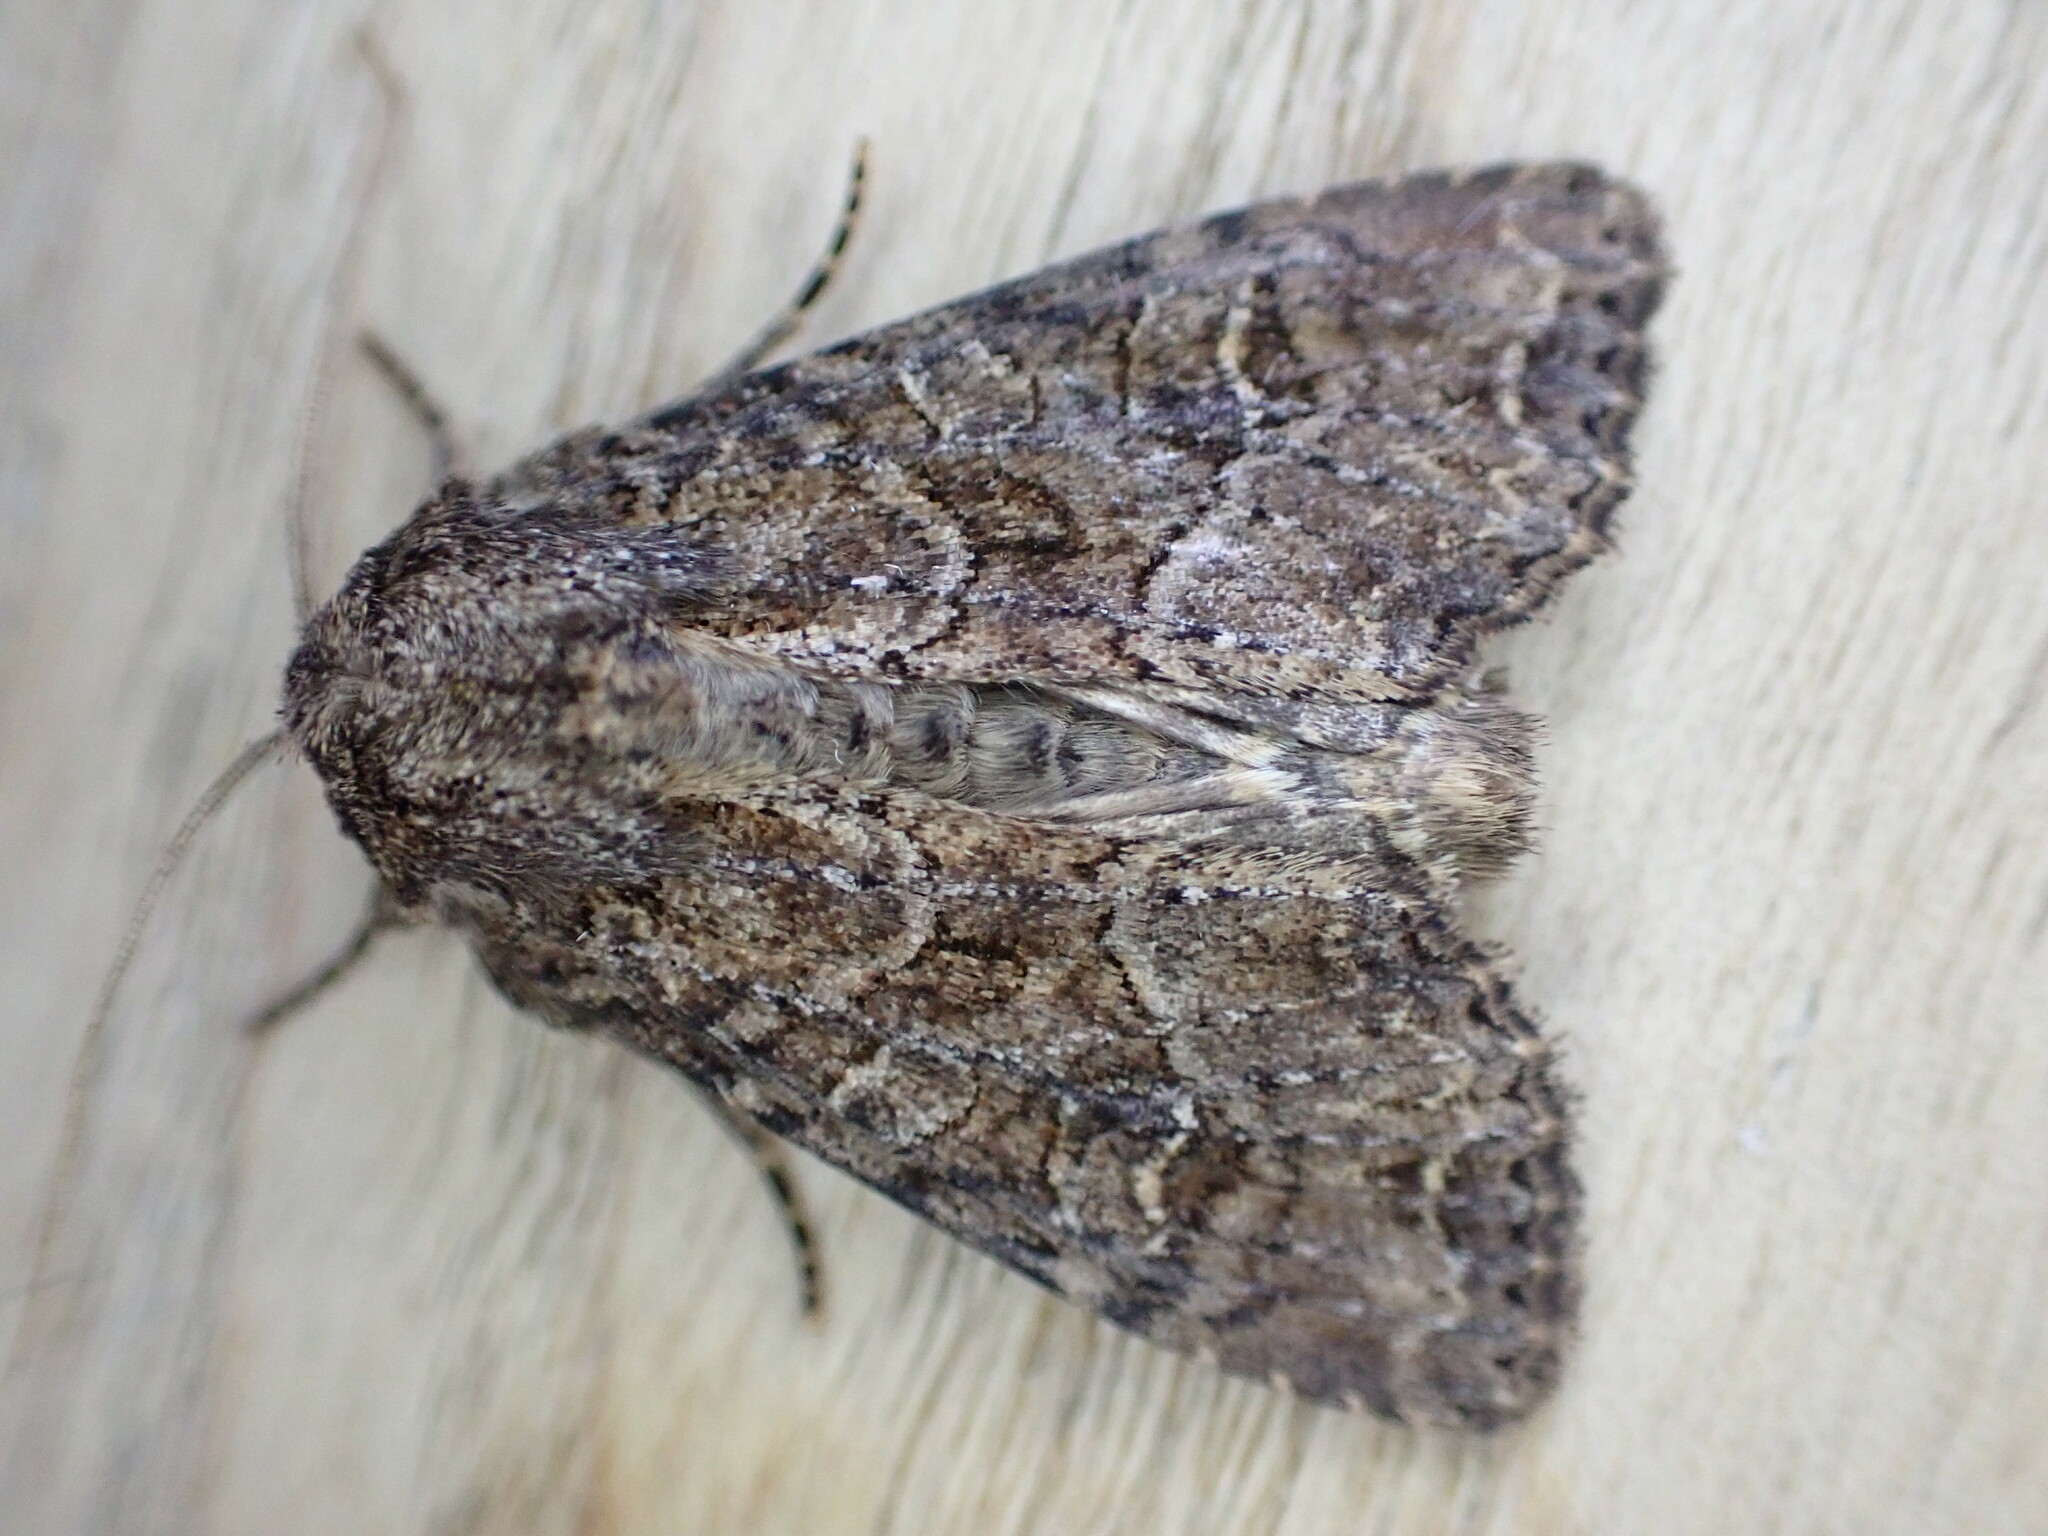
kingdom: Animalia
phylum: Arthropoda
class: Insecta
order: Lepidoptera
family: Noctuidae
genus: Apamea
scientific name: Apamea remissa
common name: Dusky brocade
